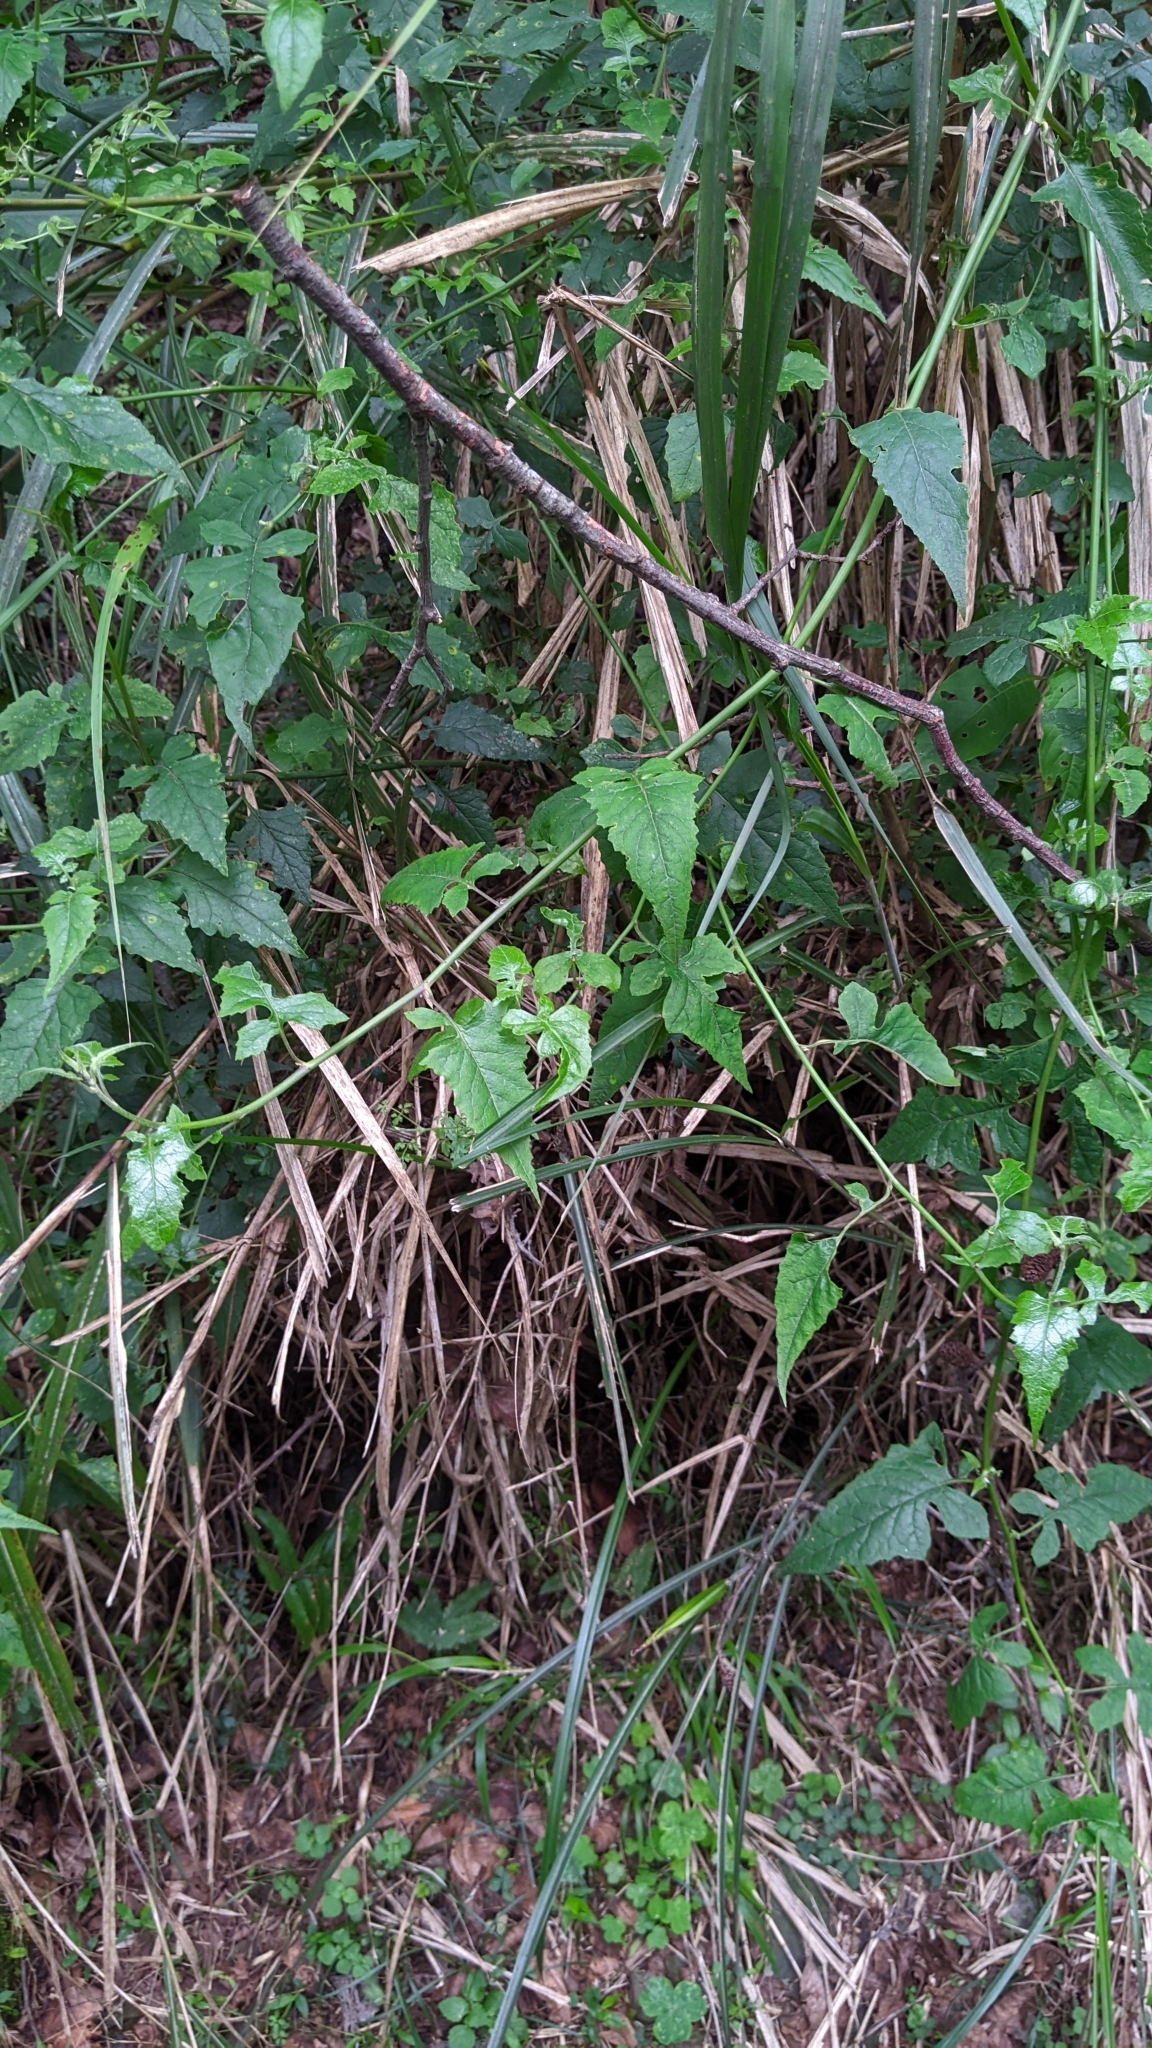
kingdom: Plantae
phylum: Tracheophyta
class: Magnoliopsida
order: Asterales
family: Asteraceae
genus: Senecio
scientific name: Senecio scandens
